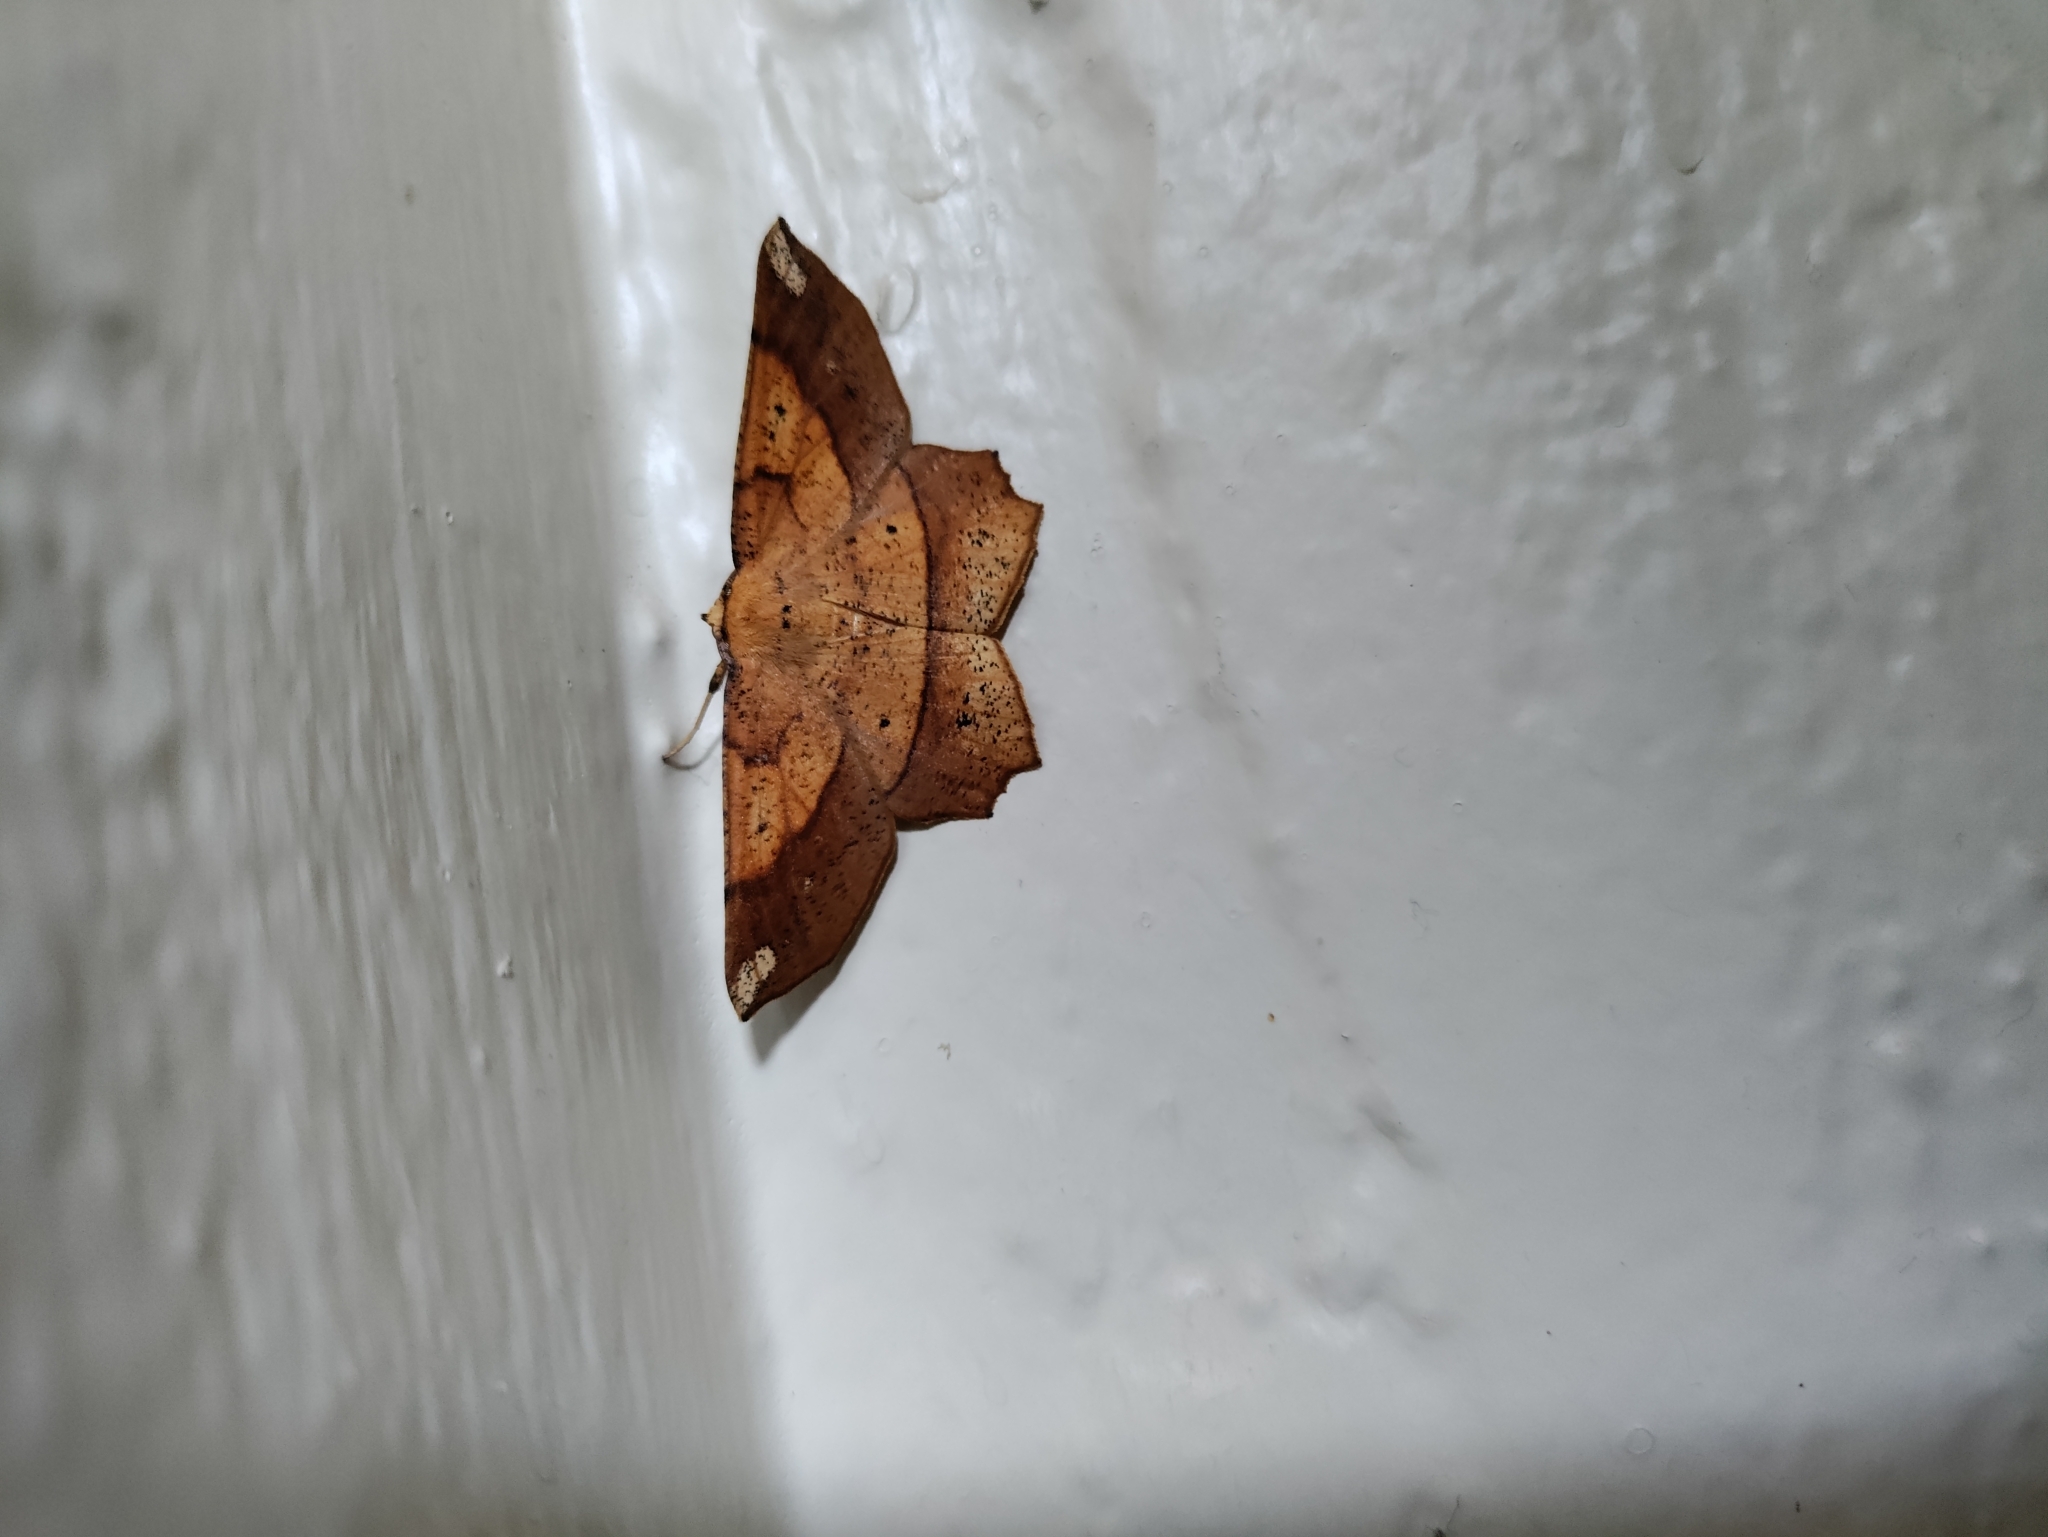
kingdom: Animalia
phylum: Arthropoda
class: Insecta
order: Lepidoptera
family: Geometridae
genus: Euchlaena
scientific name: Euchlaena amoenaria
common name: Deep yellow euchlaena
